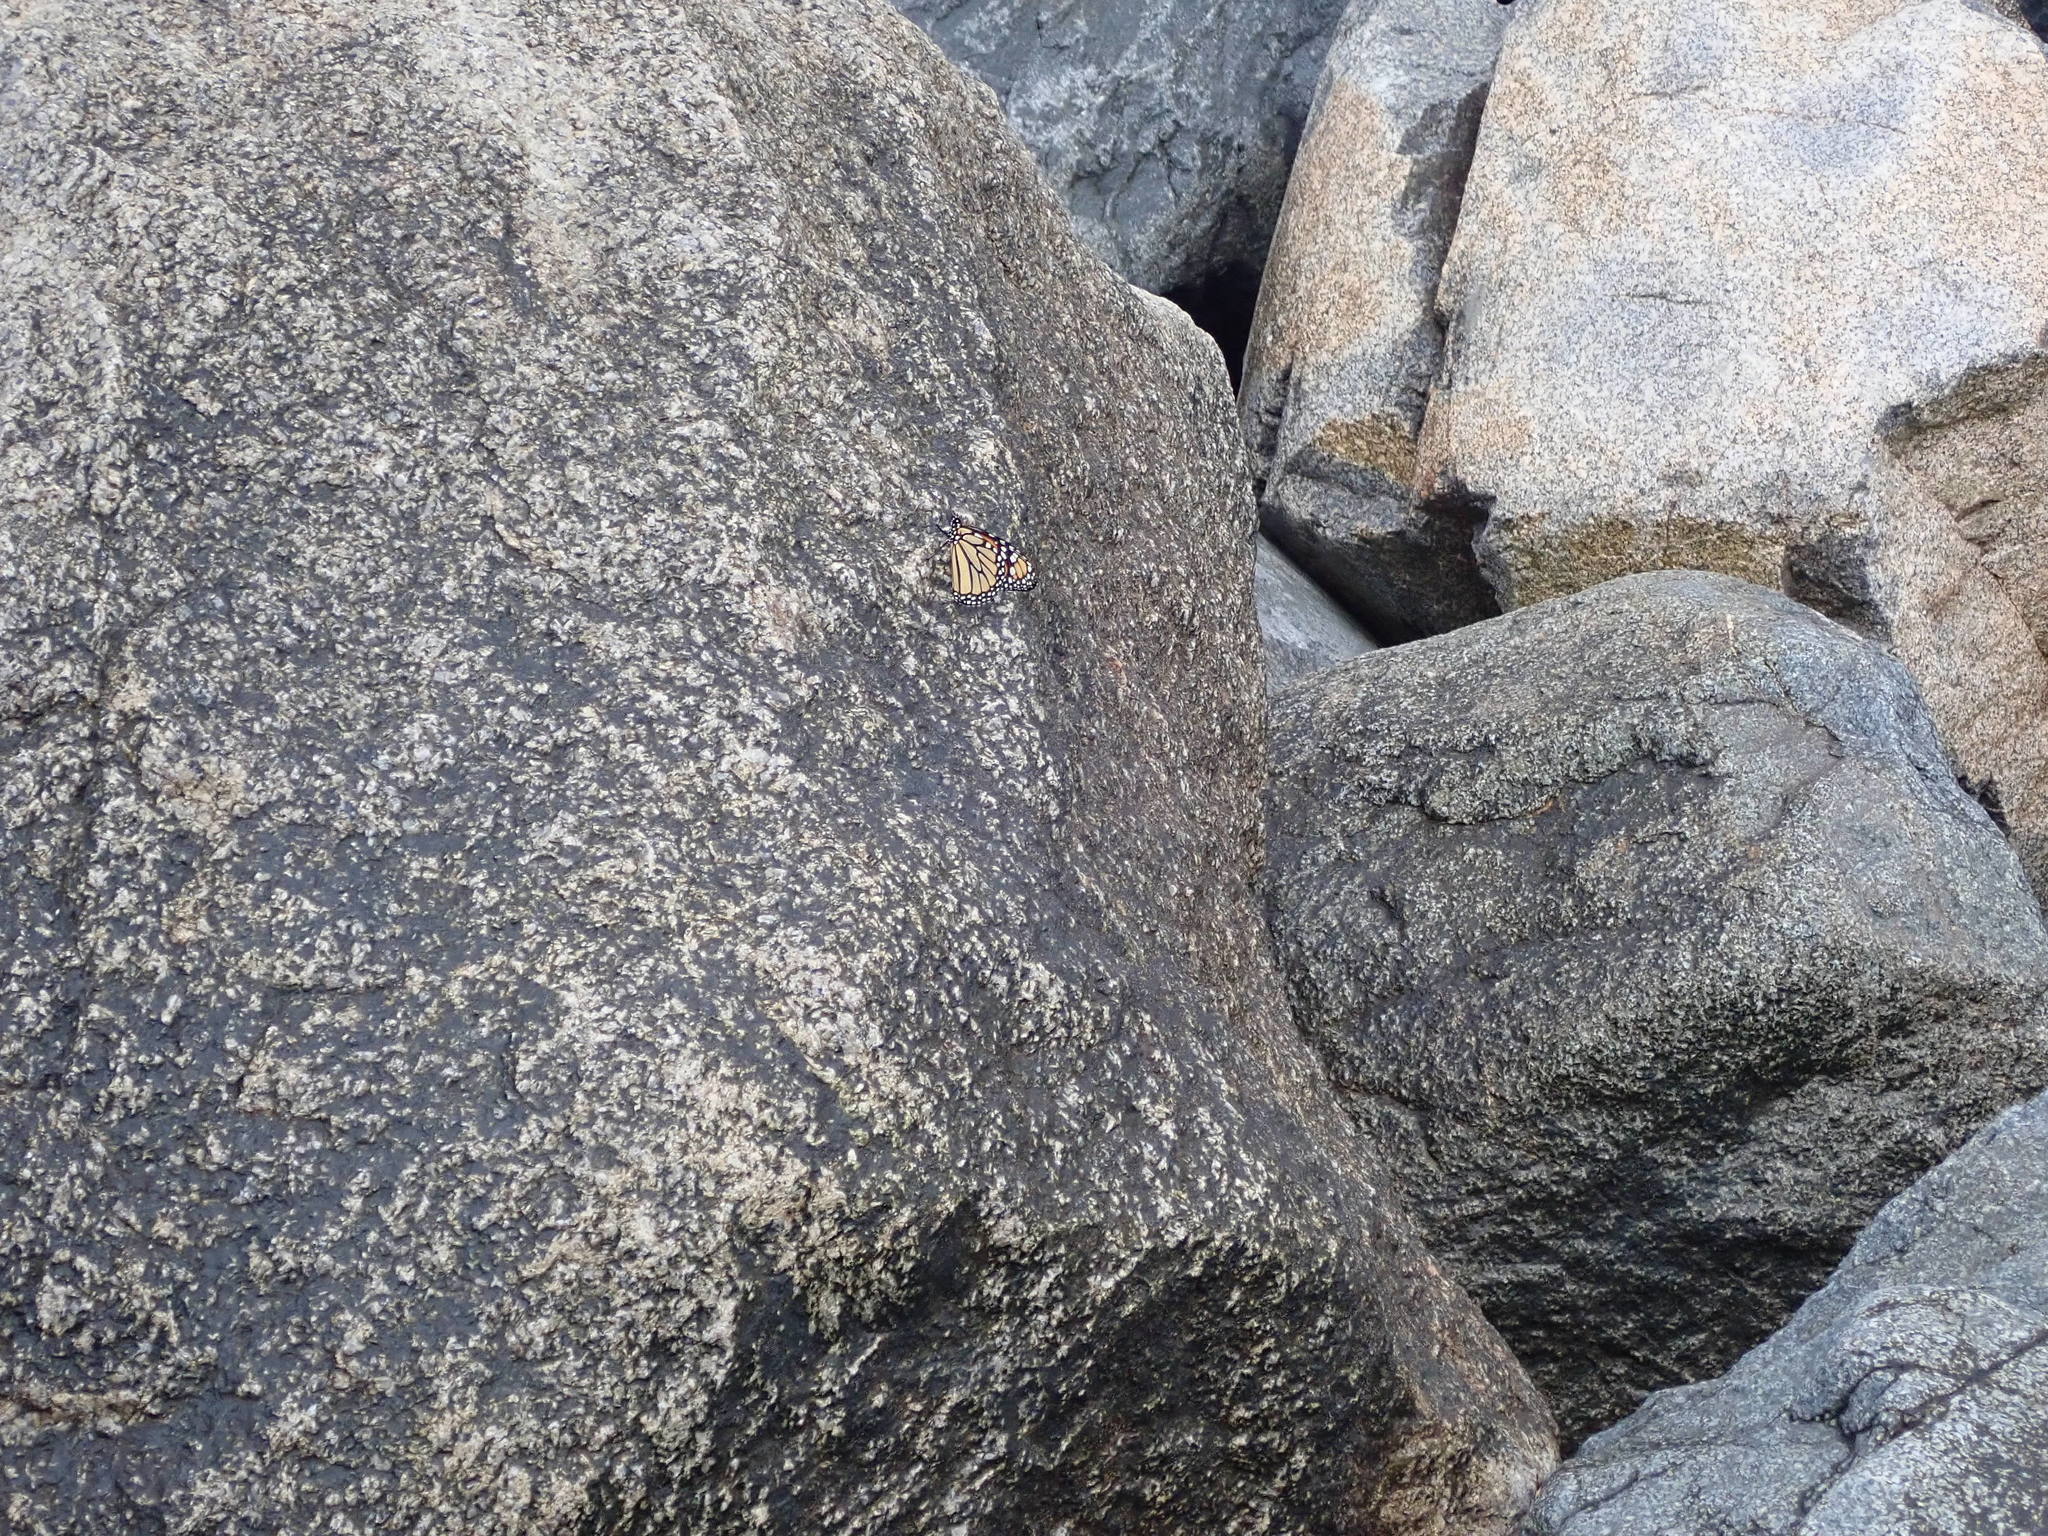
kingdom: Animalia
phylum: Arthropoda
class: Insecta
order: Lepidoptera
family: Nymphalidae
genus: Danaus
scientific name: Danaus plexippus
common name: Monarch
